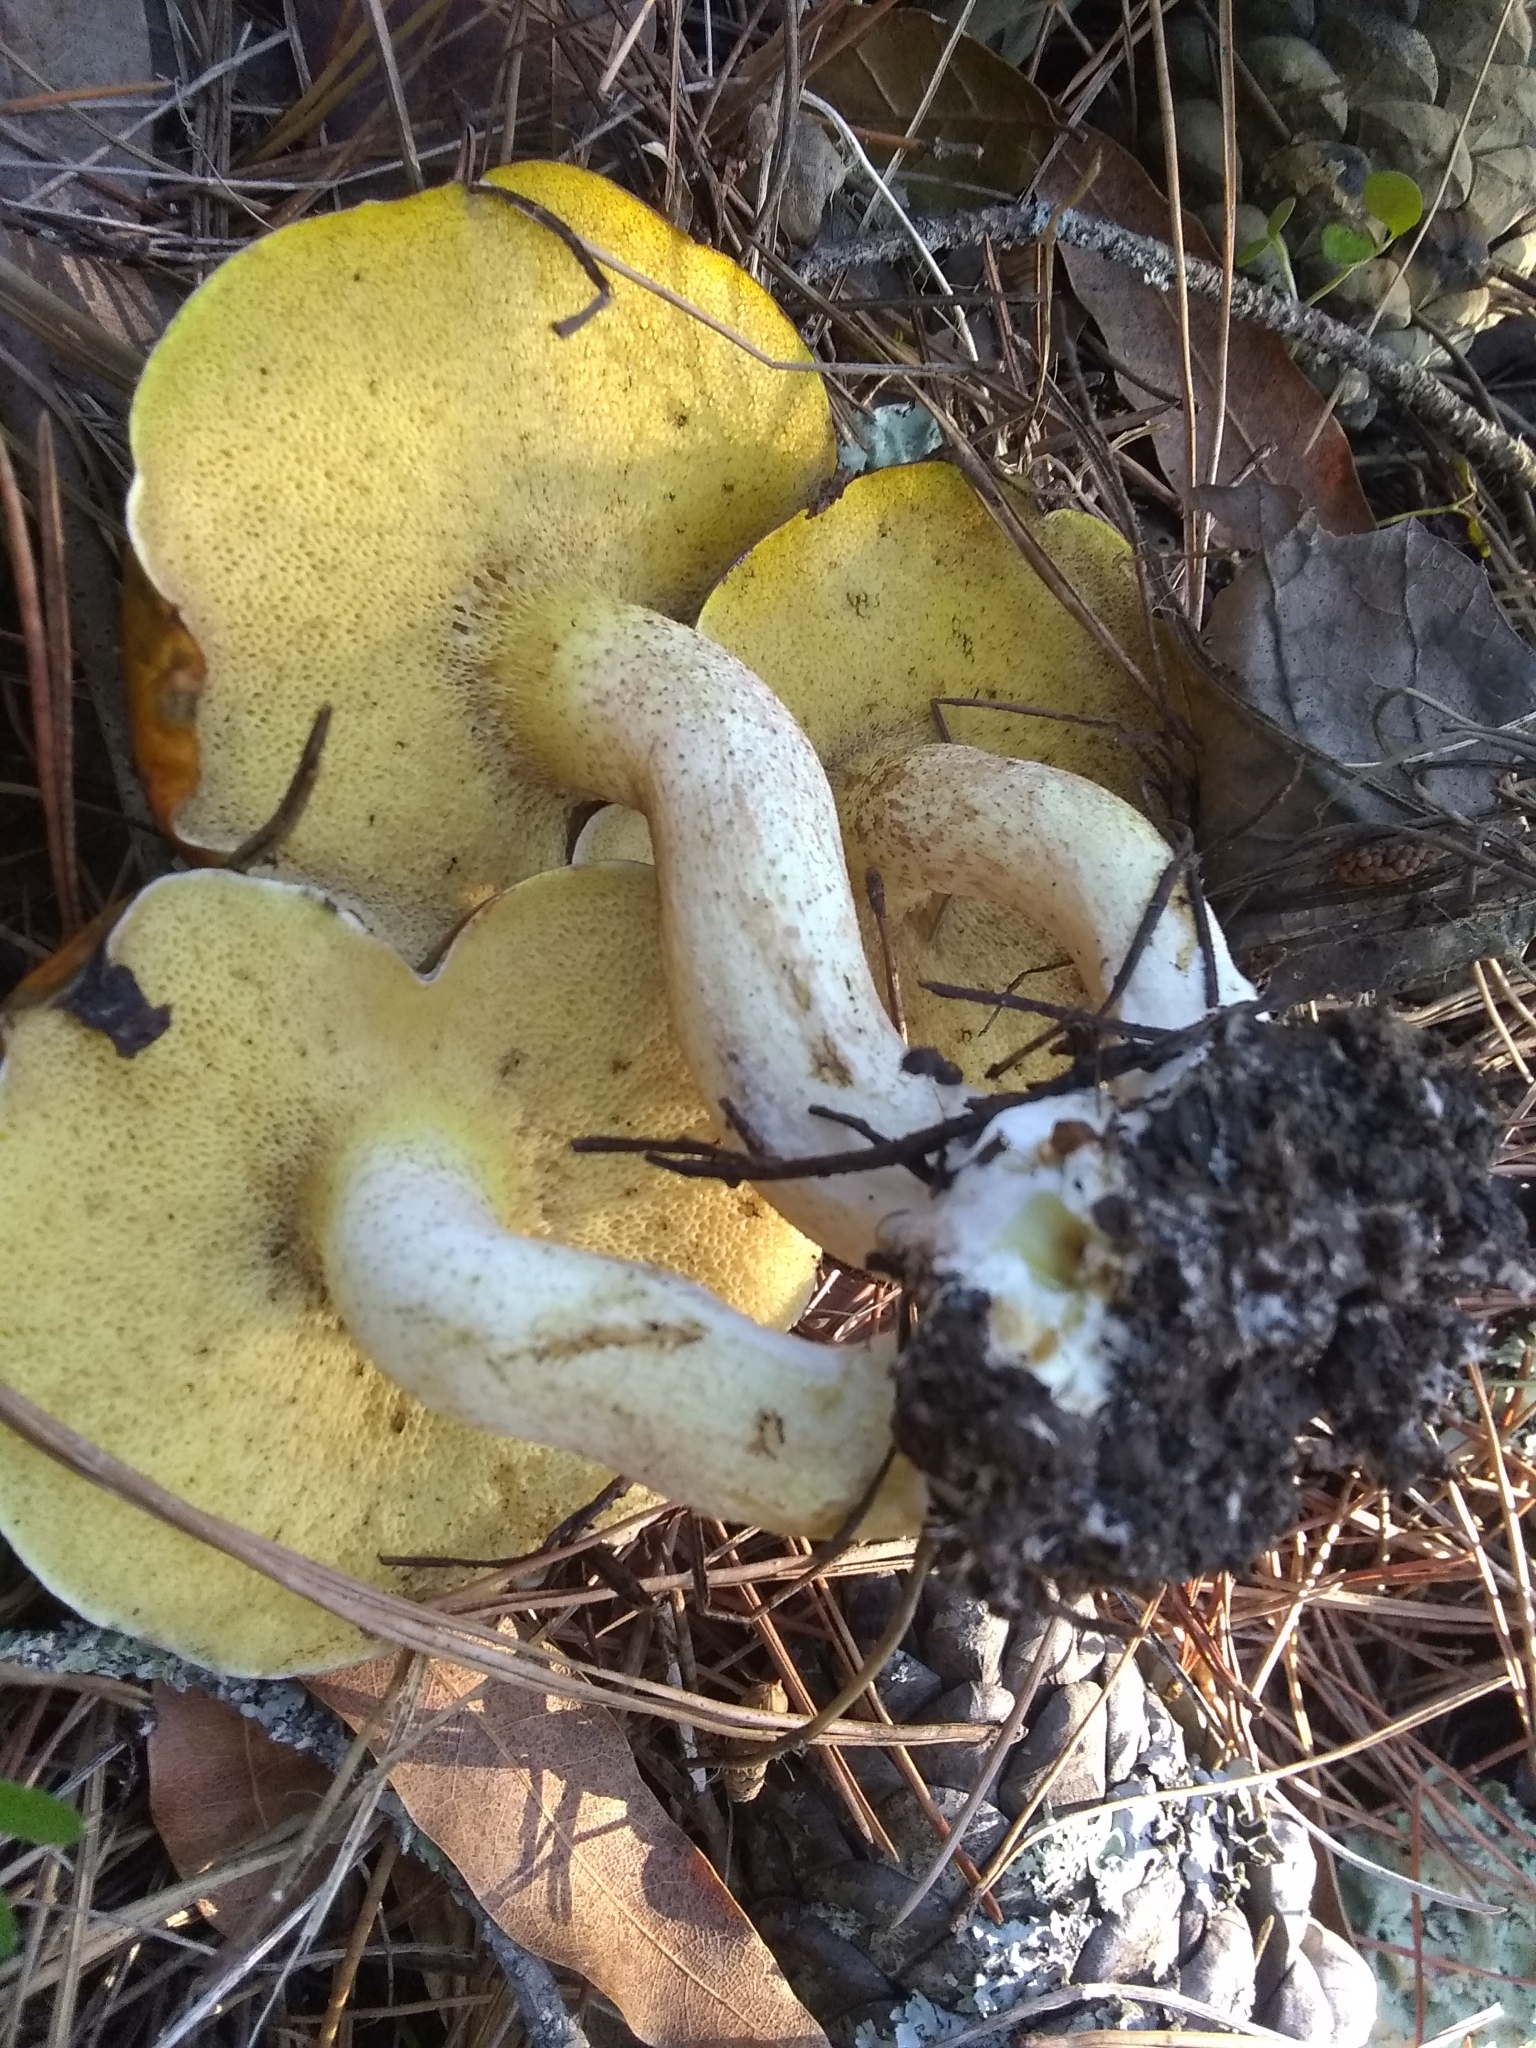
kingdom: Fungi
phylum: Basidiomycota
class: Agaricomycetes
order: Boletales
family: Suillaceae
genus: Suillus
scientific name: Suillus pungens
